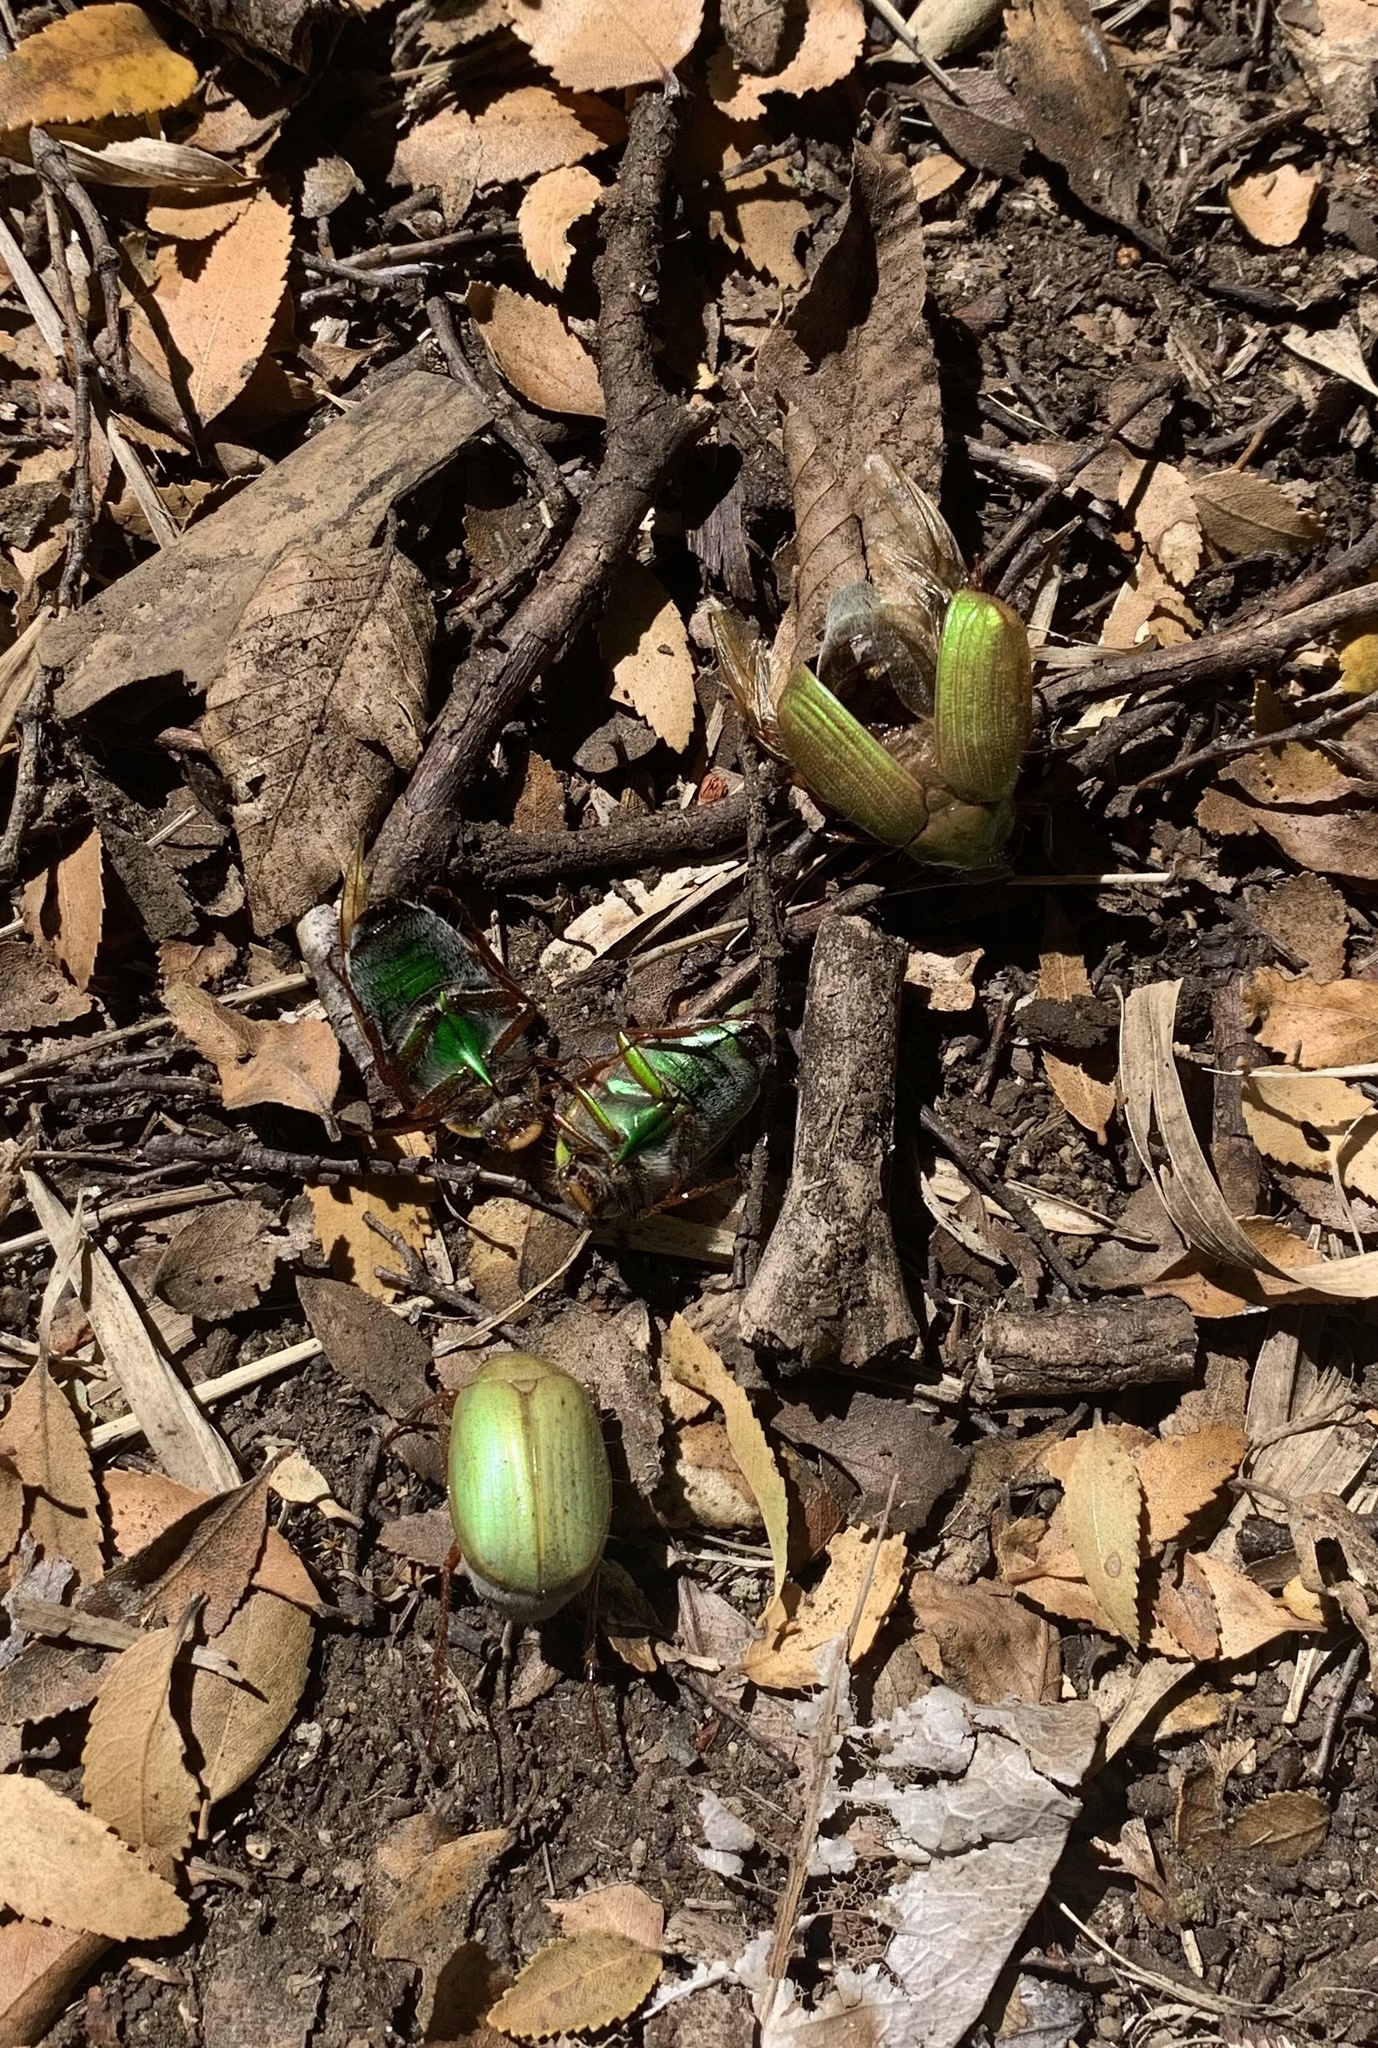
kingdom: Animalia
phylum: Arthropoda
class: Insecta
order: Coleoptera
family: Scarabaeidae
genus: Modialis
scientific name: Modialis prasinella
